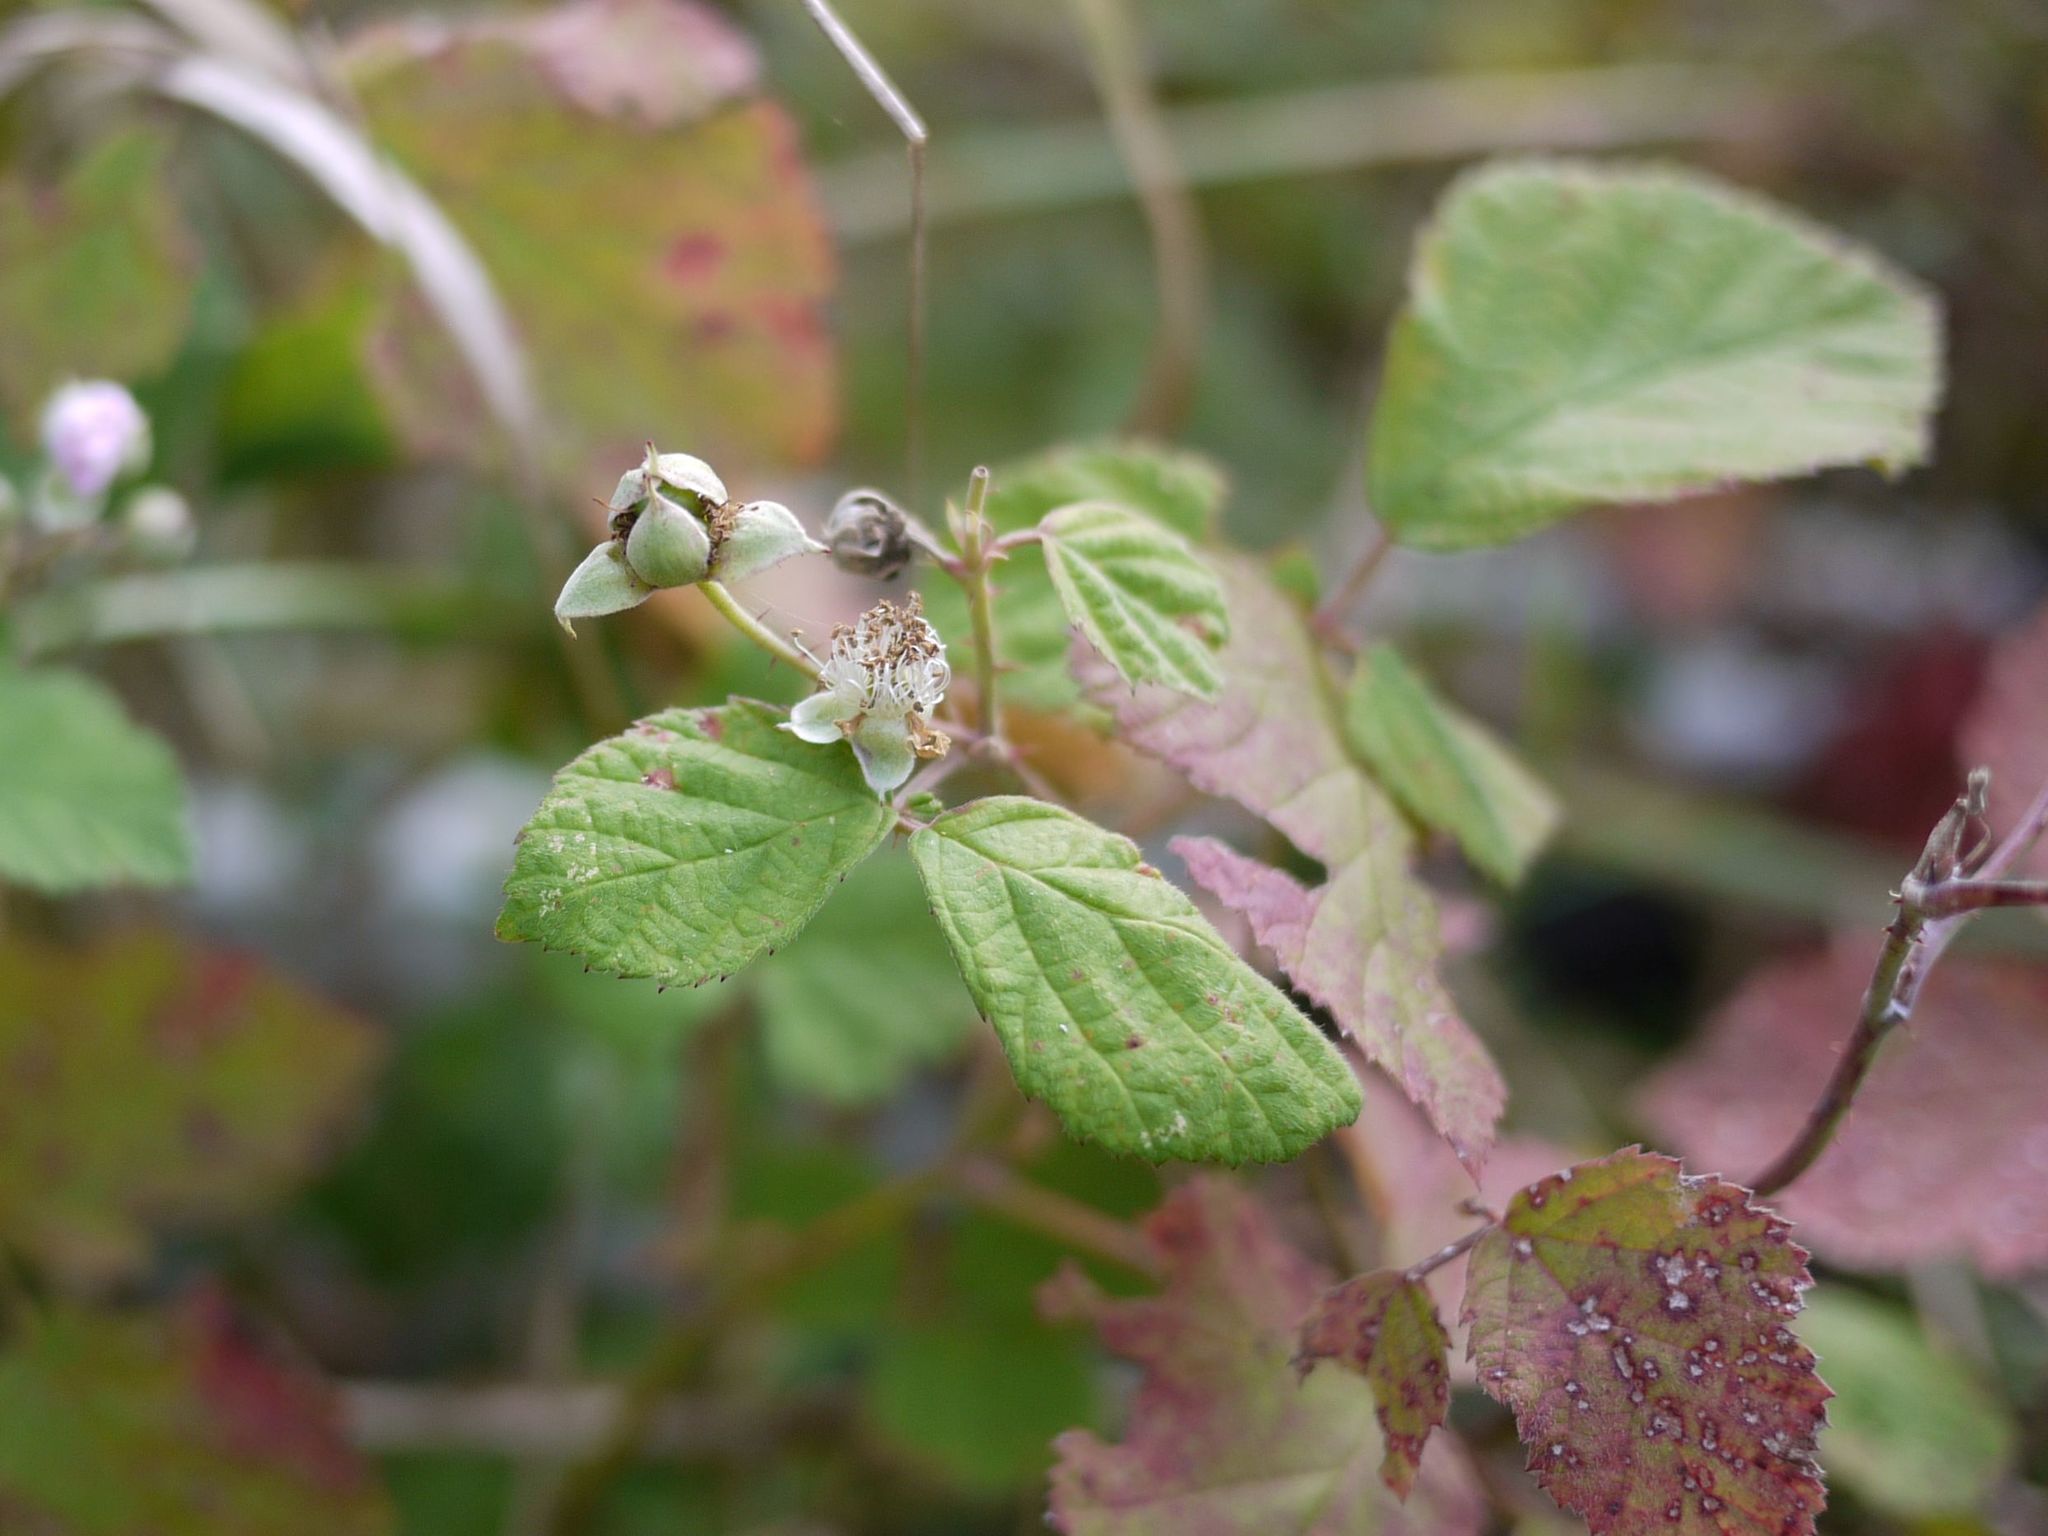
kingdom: Plantae
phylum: Tracheophyta
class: Magnoliopsida
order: Rosales
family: Rosaceae
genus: Rubus
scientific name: Rubus caesius
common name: Dewberry
